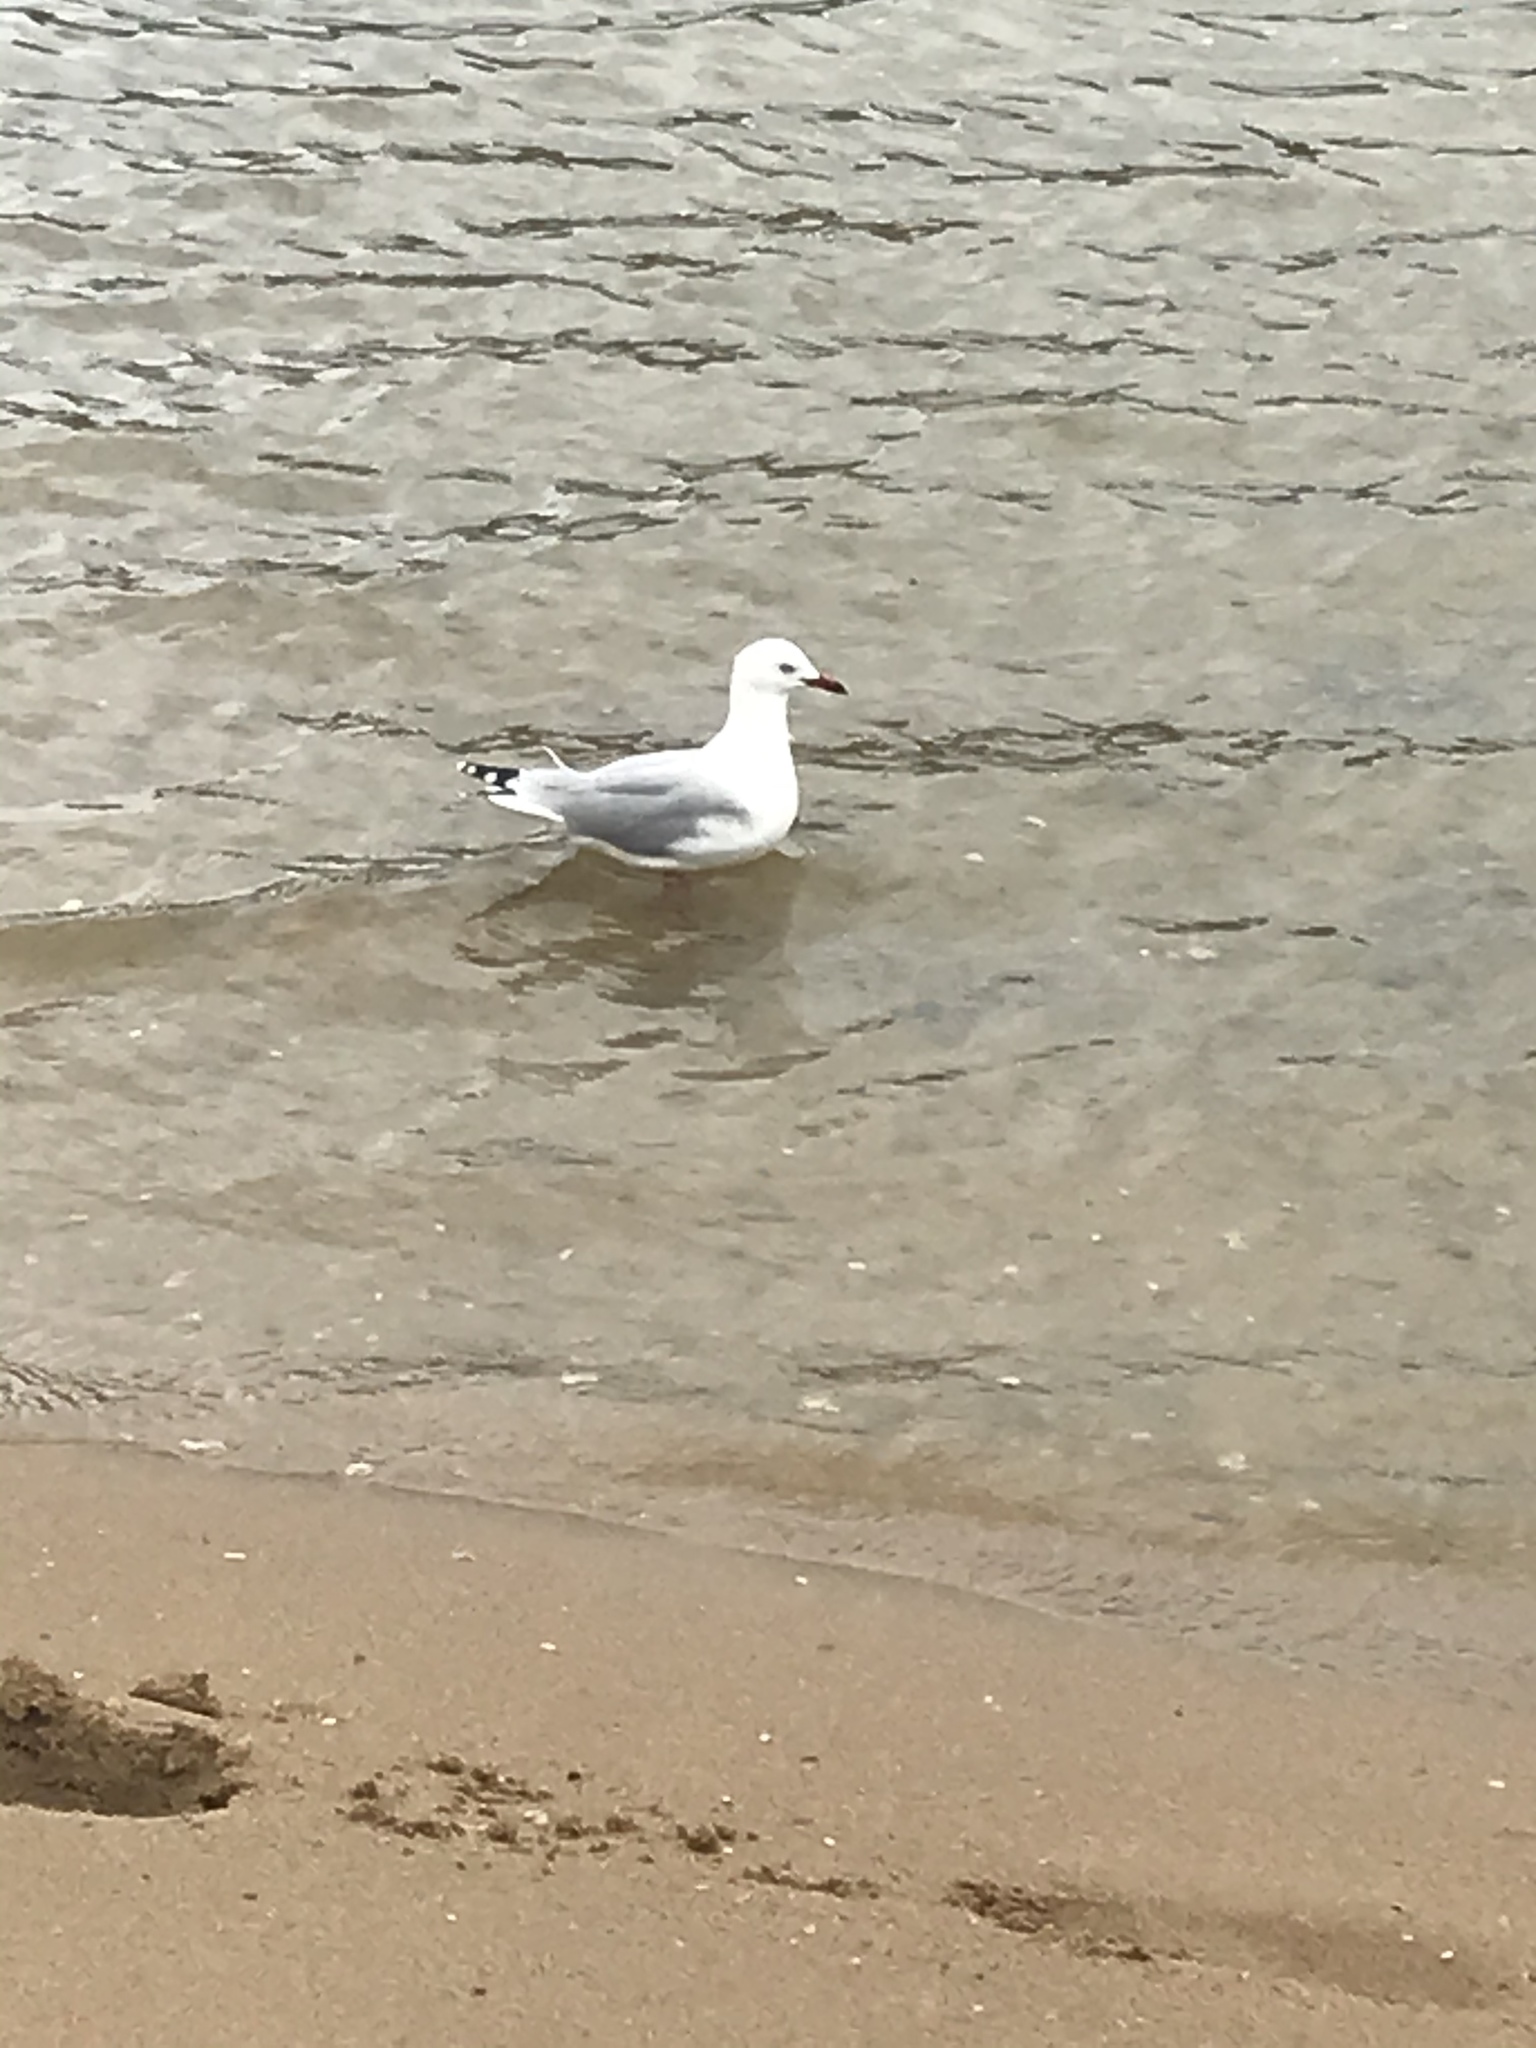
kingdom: Animalia
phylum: Chordata
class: Aves
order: Charadriiformes
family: Laridae
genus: Chroicocephalus
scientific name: Chroicocephalus novaehollandiae
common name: Silver gull
